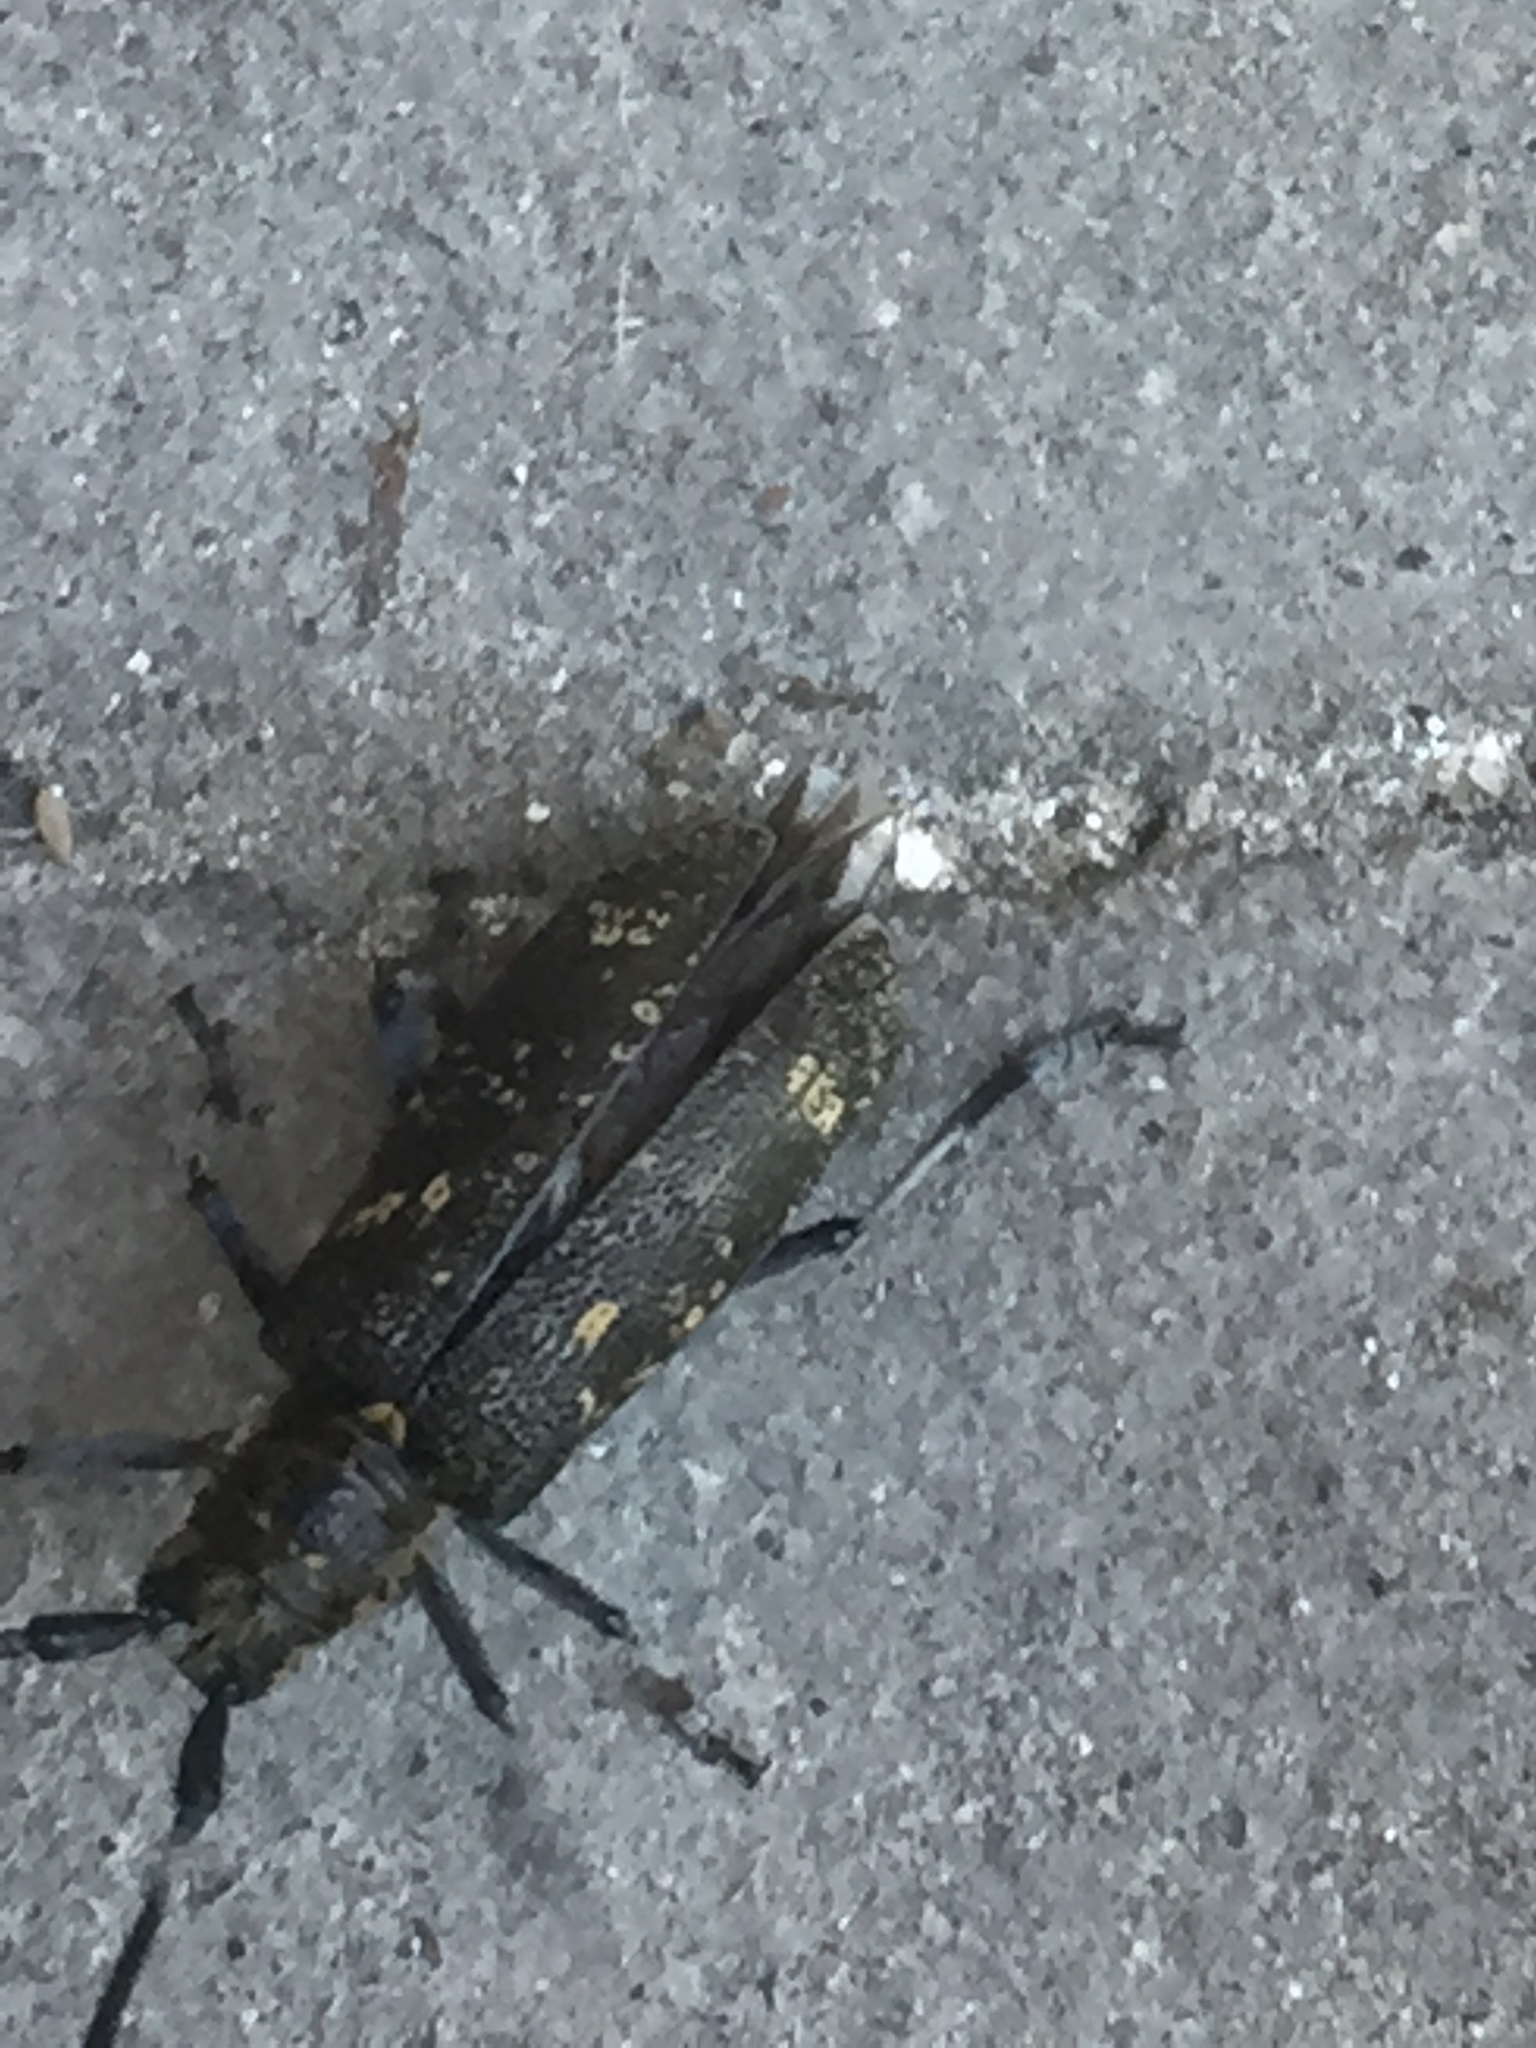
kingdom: Animalia
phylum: Arthropoda
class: Insecta
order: Coleoptera
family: Cerambycidae
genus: Monochamus
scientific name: Monochamus sutor
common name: Pine sawyer
